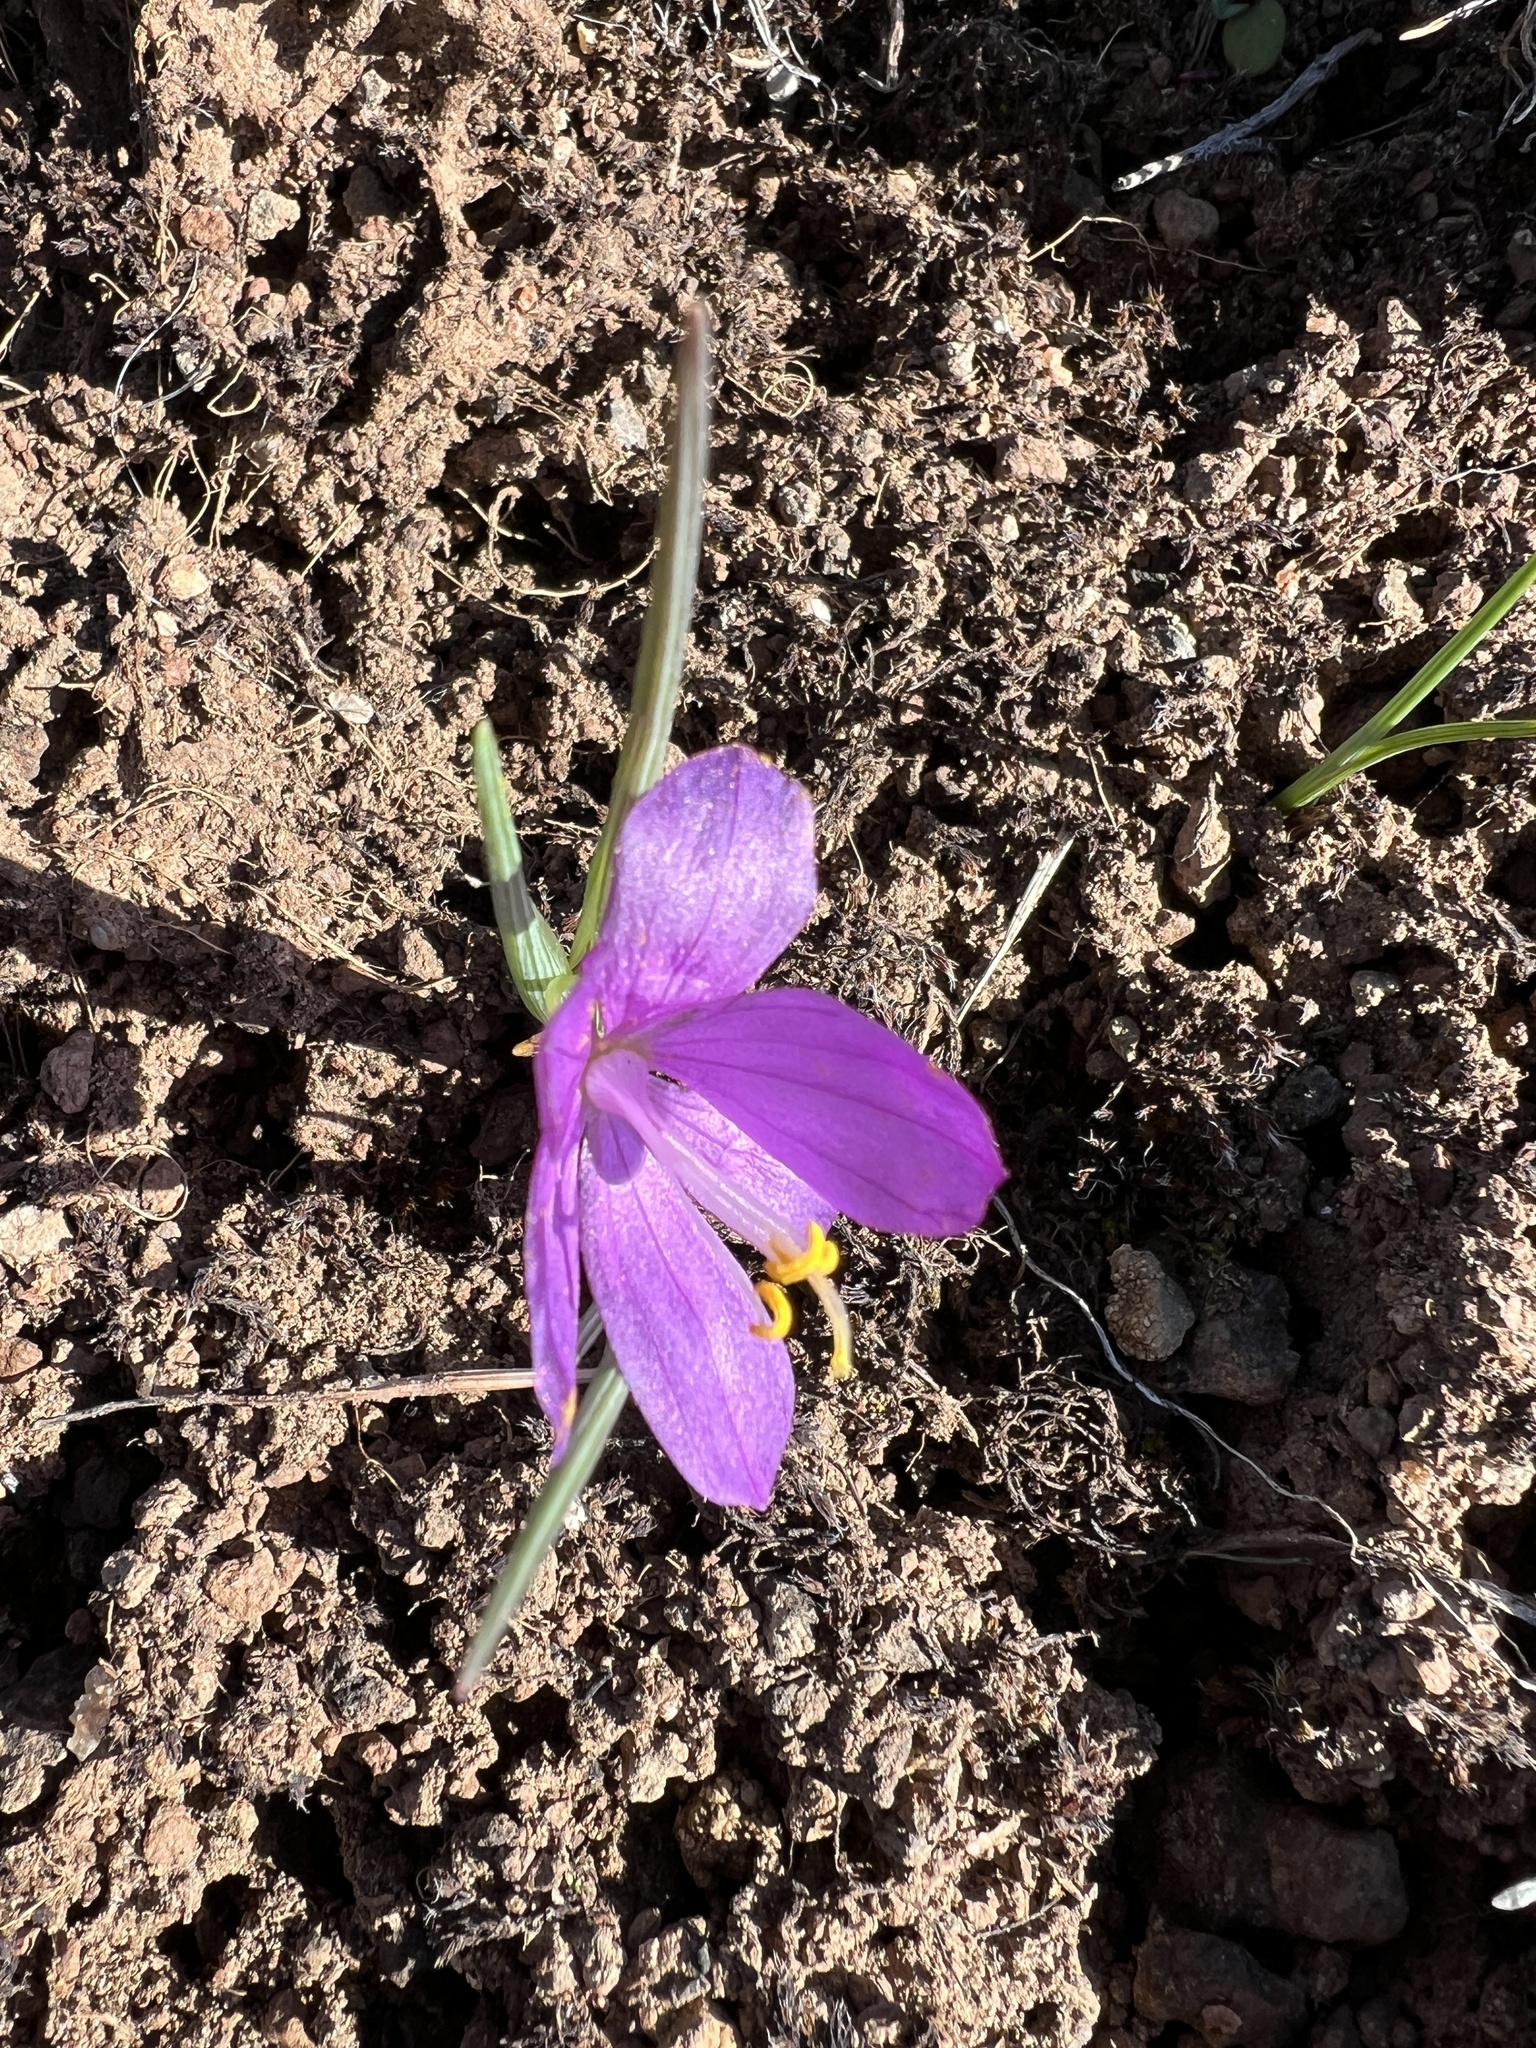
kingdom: Plantae
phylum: Tracheophyta
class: Liliopsida
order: Asparagales
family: Iridaceae
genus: Olsynium
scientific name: Olsynium douglasii
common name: Douglas' grasswidow
